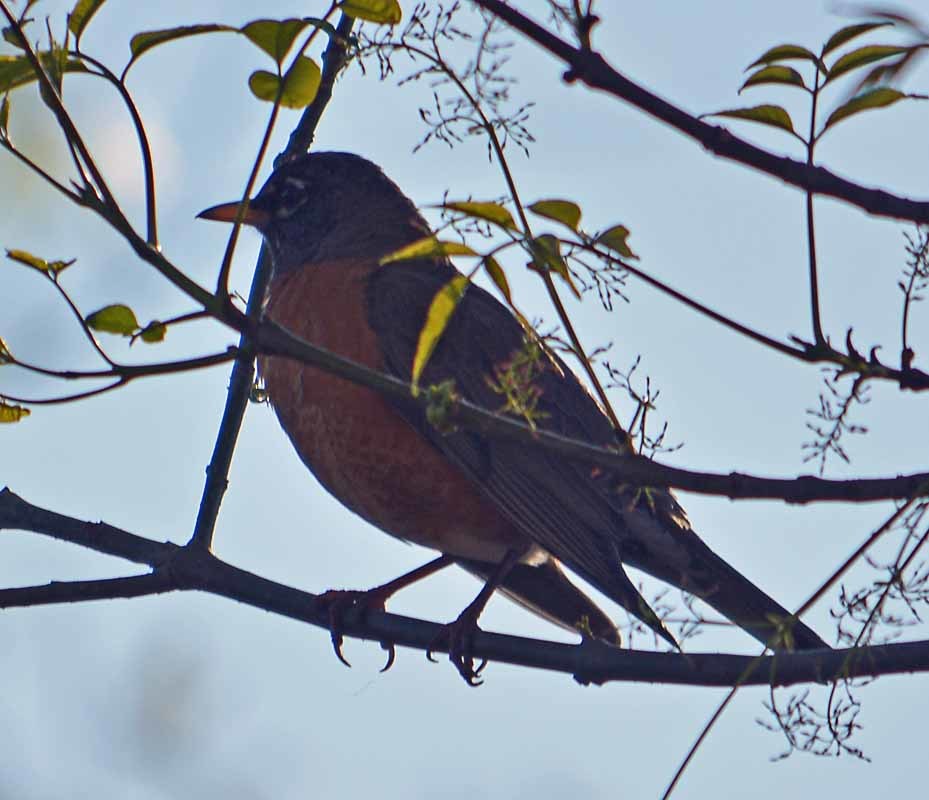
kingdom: Animalia
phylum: Chordata
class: Aves
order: Passeriformes
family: Turdidae
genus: Turdus
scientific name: Turdus migratorius
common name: American robin
